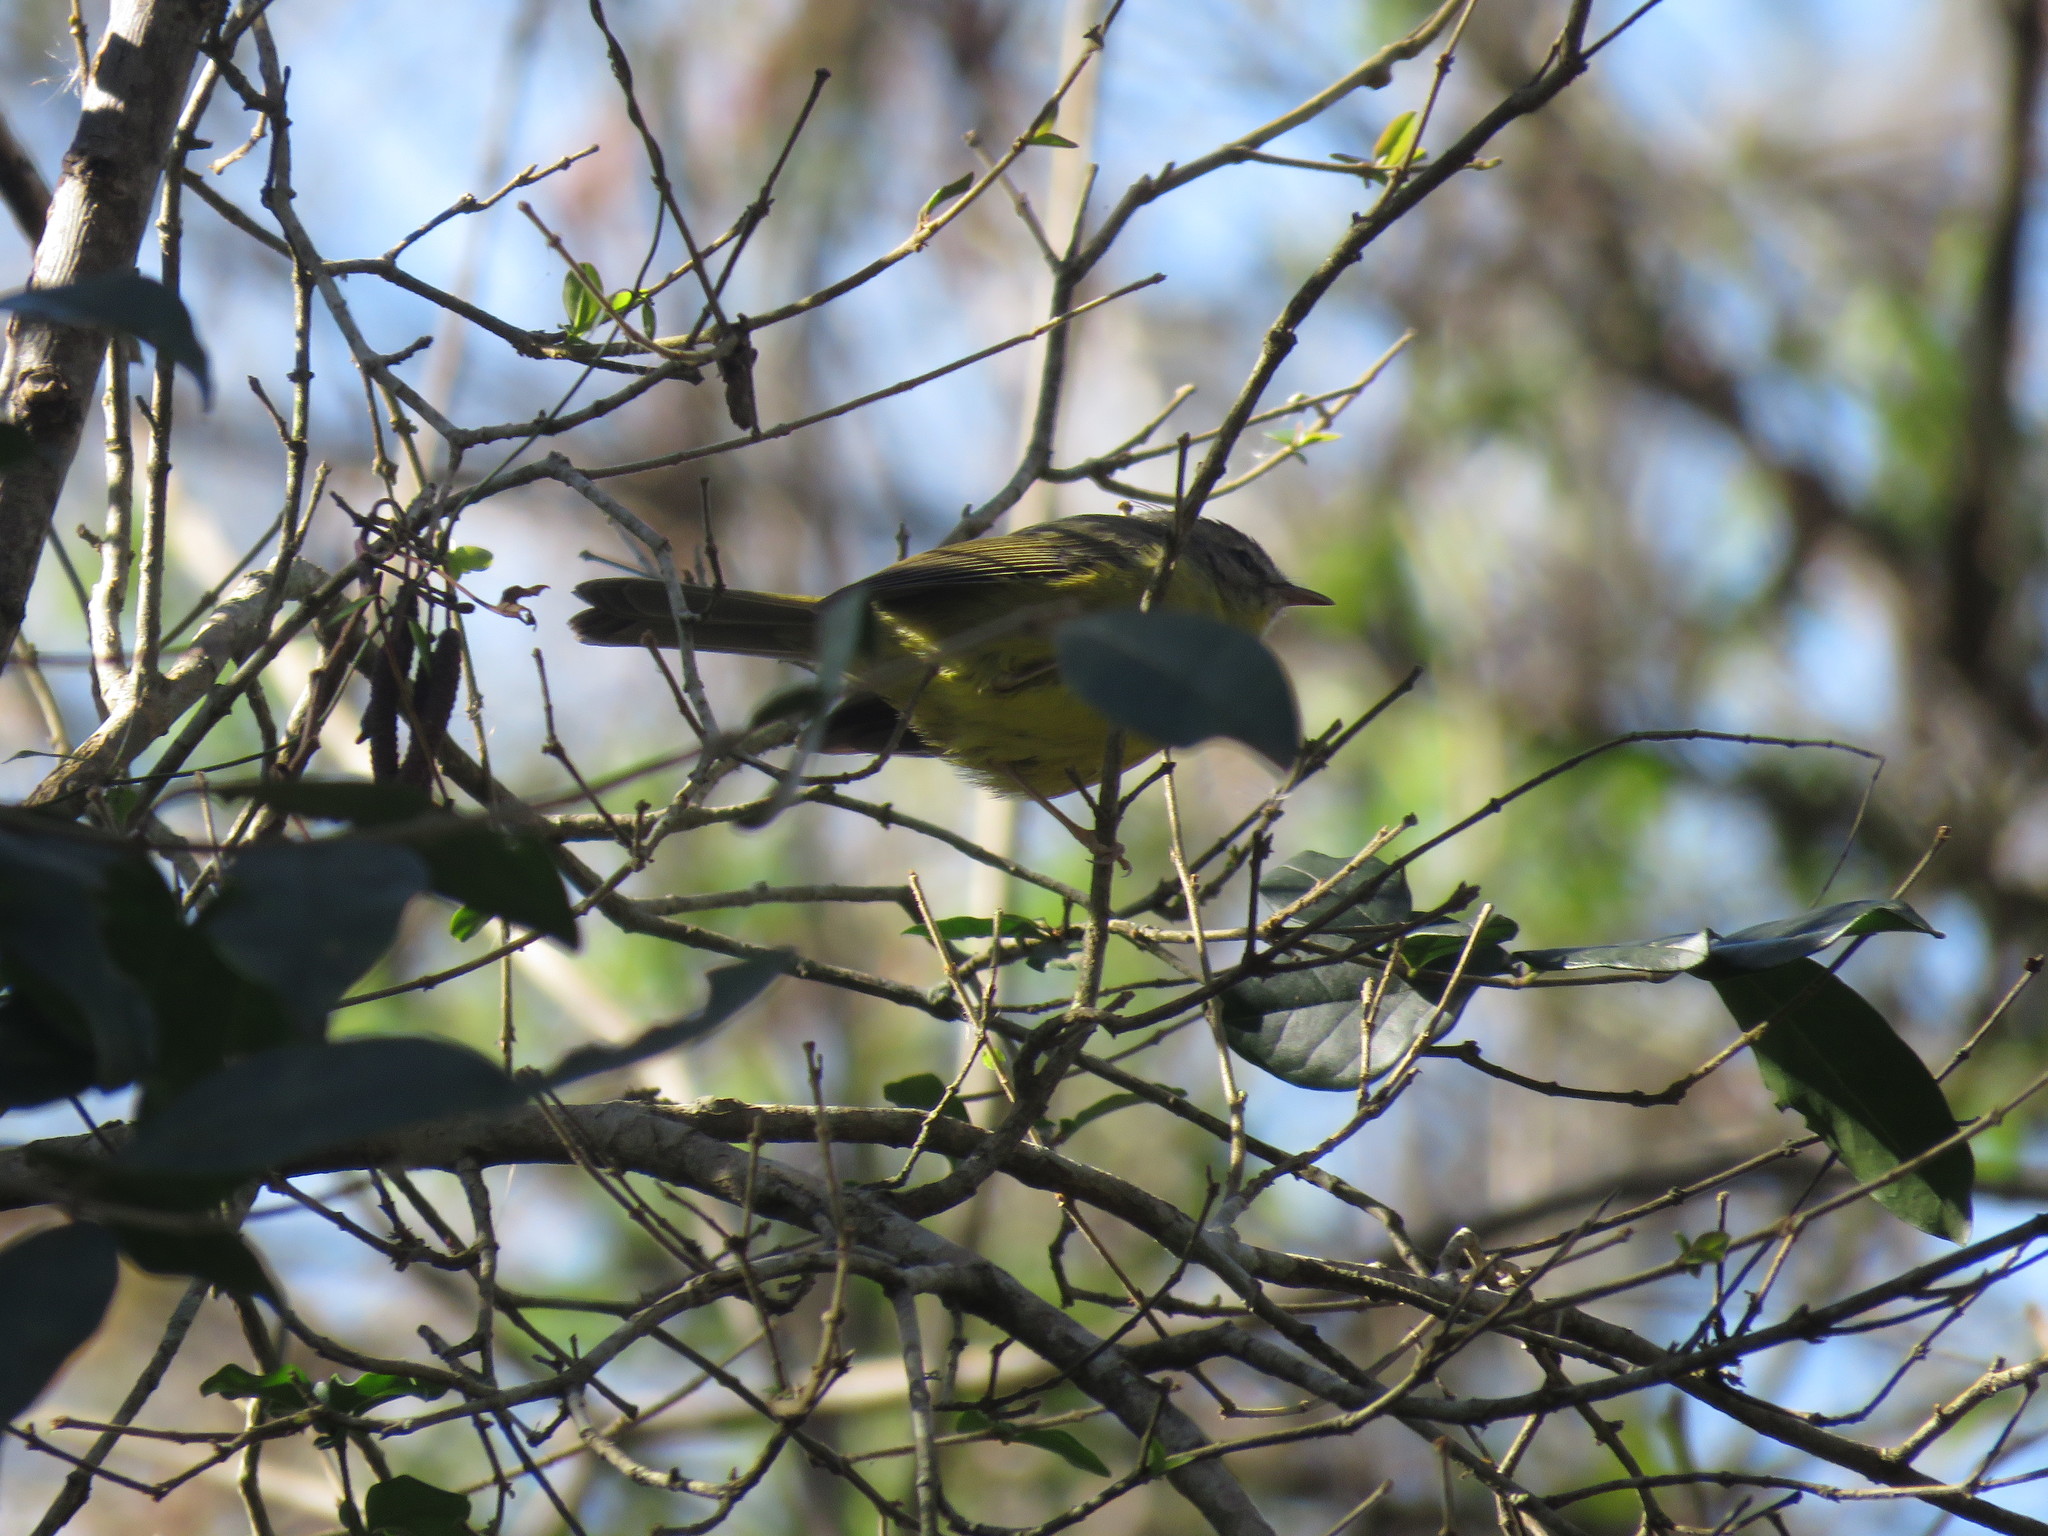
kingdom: Animalia
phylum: Chordata
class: Aves
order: Passeriformes
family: Parulidae
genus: Basileuterus
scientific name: Basileuterus culicivorus
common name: Golden-crowned warbler
